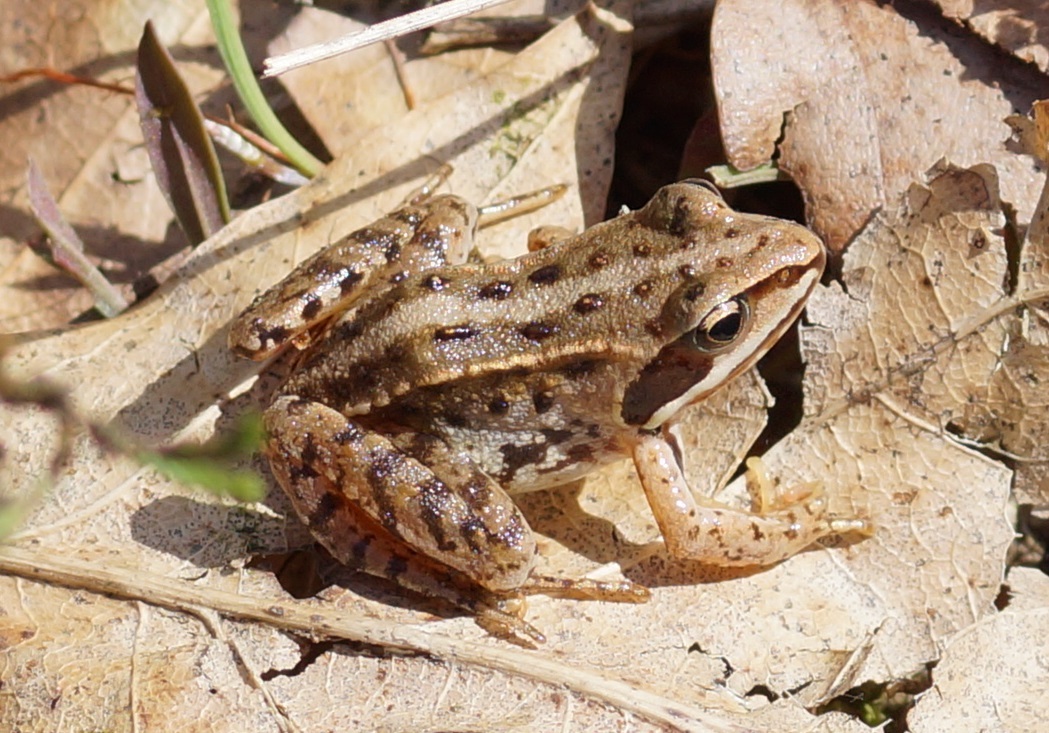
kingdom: Animalia
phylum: Chordata
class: Amphibia
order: Anura
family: Ranidae
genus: Rana
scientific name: Rana arvalis
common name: Moor frog
